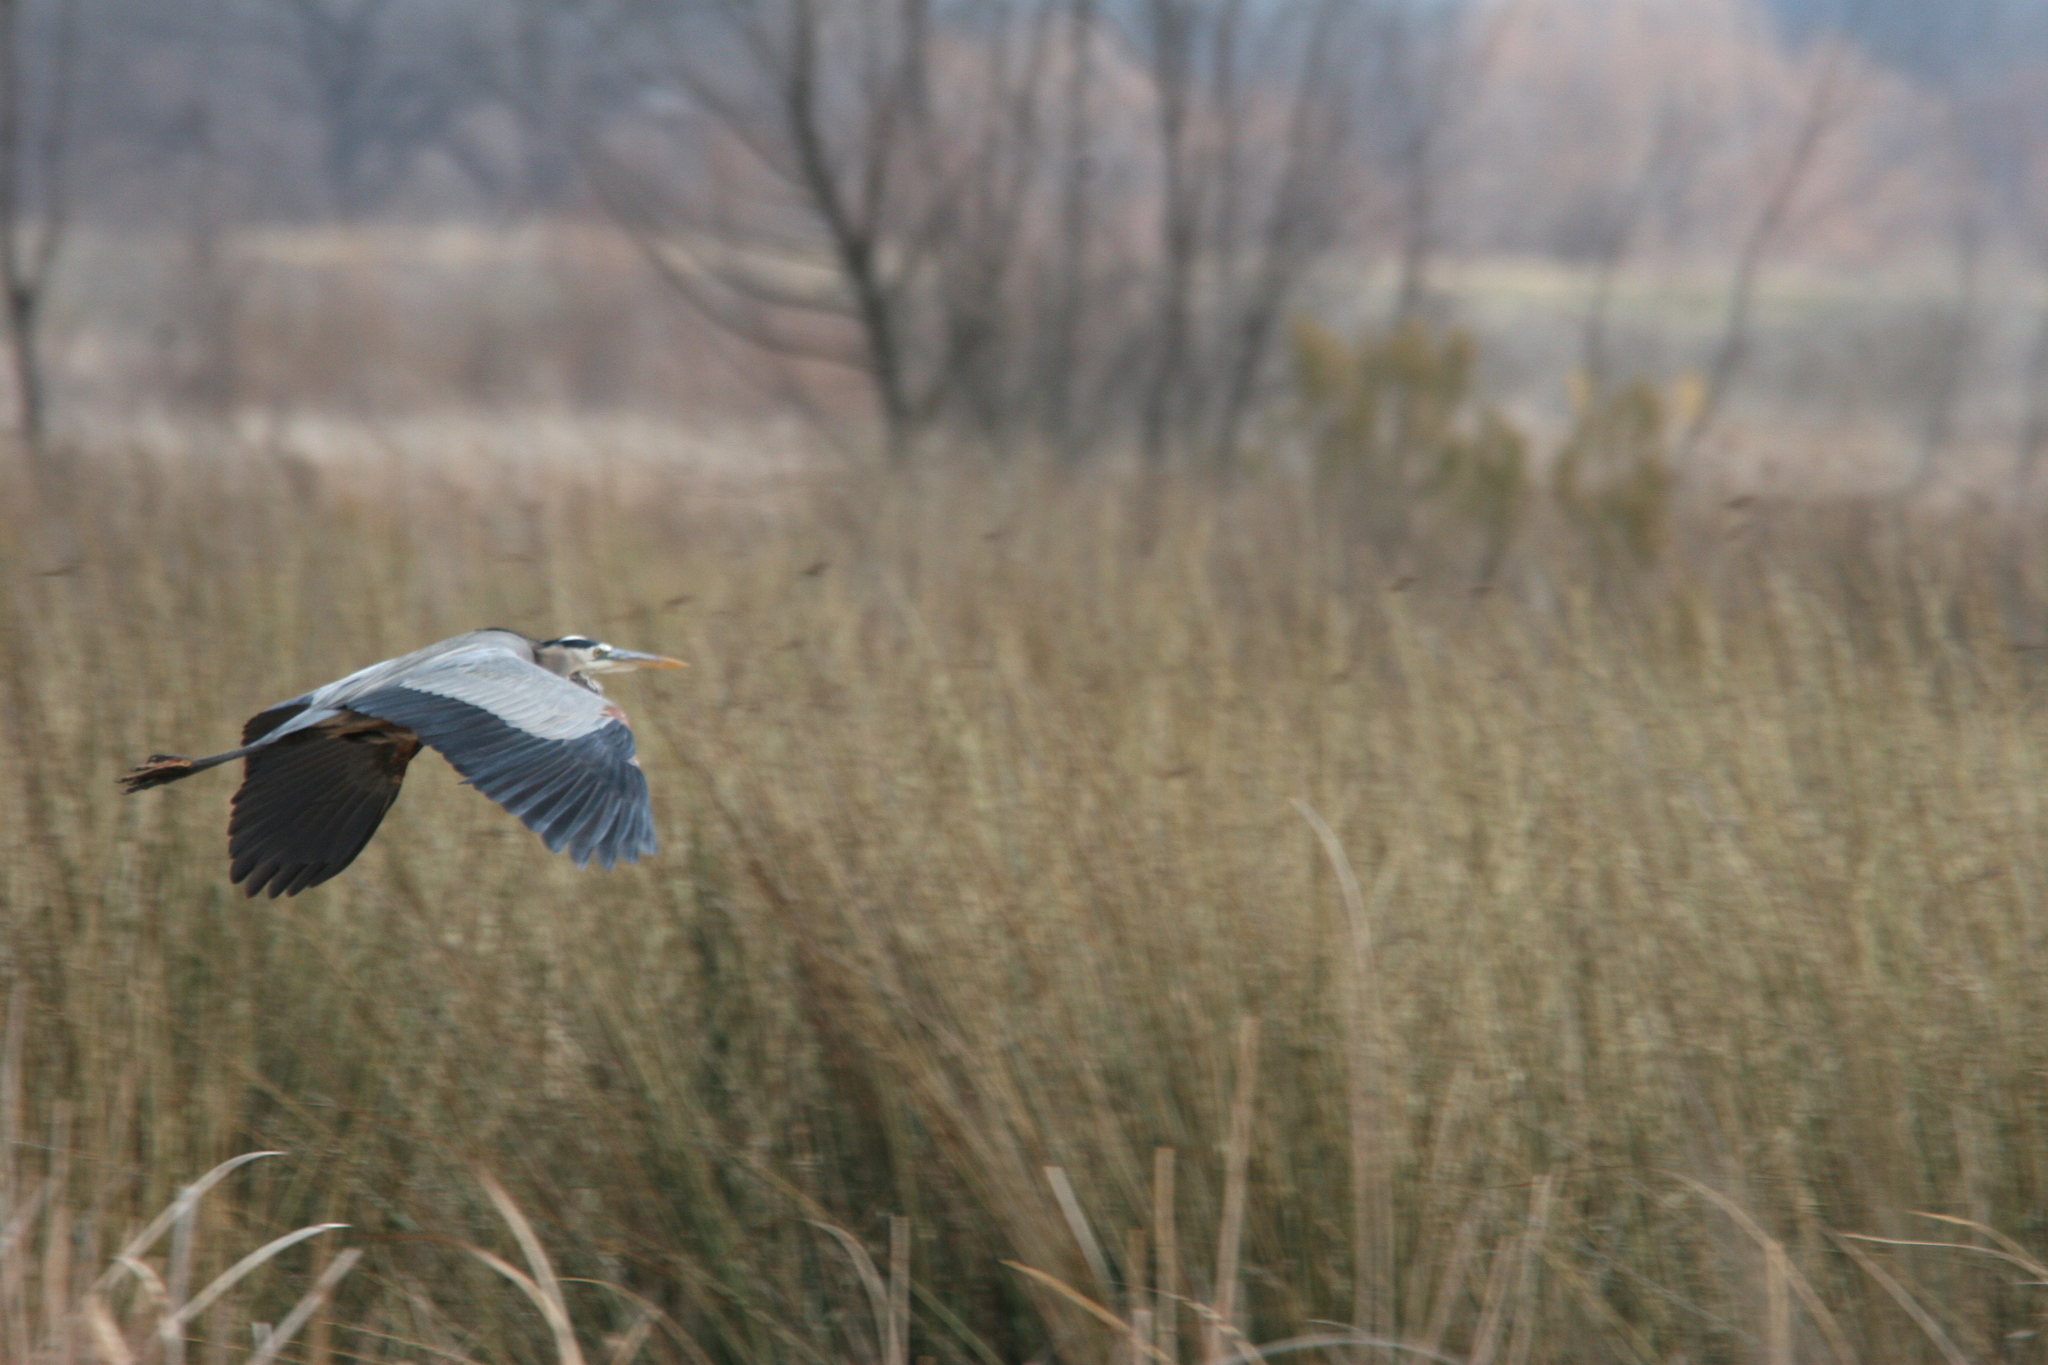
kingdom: Animalia
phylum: Chordata
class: Aves
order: Pelecaniformes
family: Ardeidae
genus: Ardea
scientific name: Ardea herodias
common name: Great blue heron
